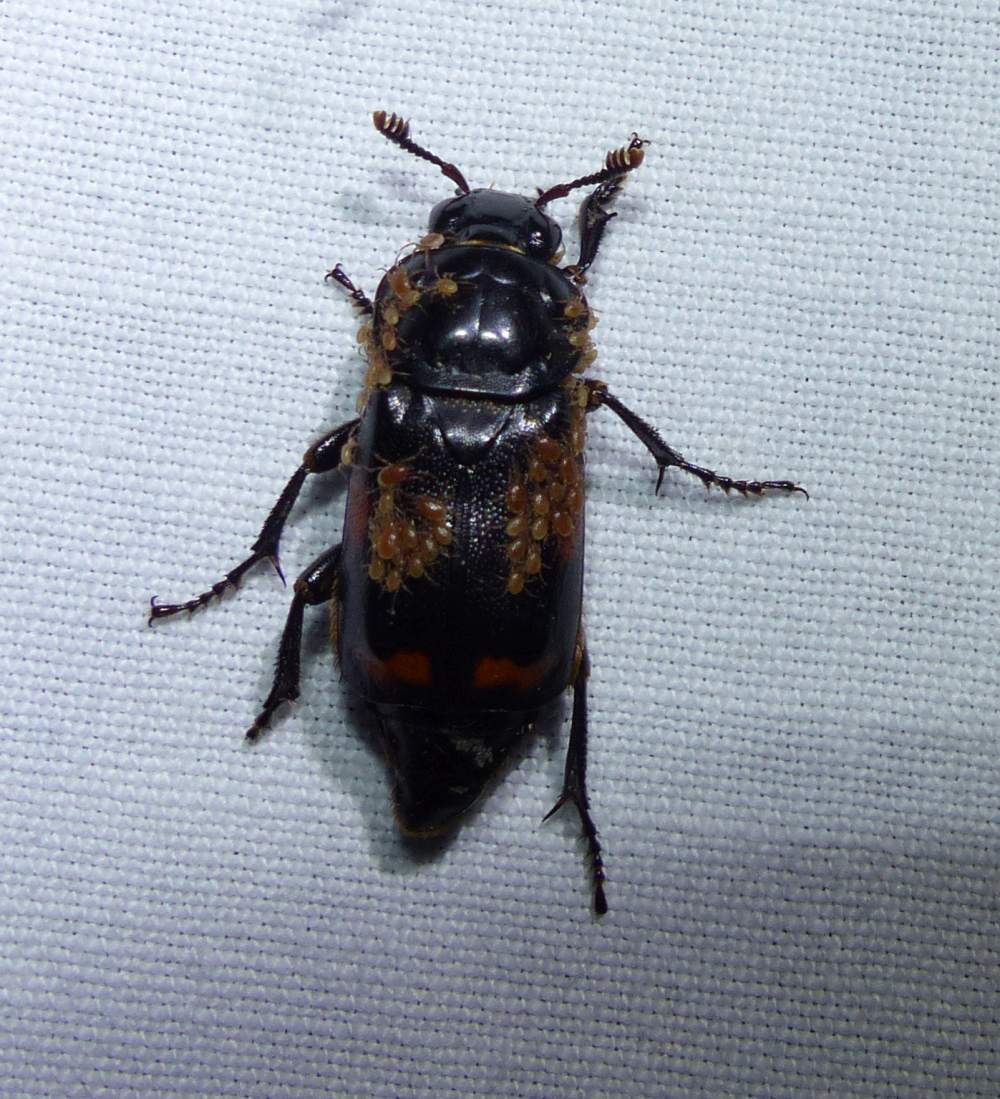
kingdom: Animalia
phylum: Arthropoda
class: Insecta
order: Coleoptera
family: Staphylinidae
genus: Nicrophorus
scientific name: Nicrophorus pustulatus
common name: Pustulated carrion beetle
